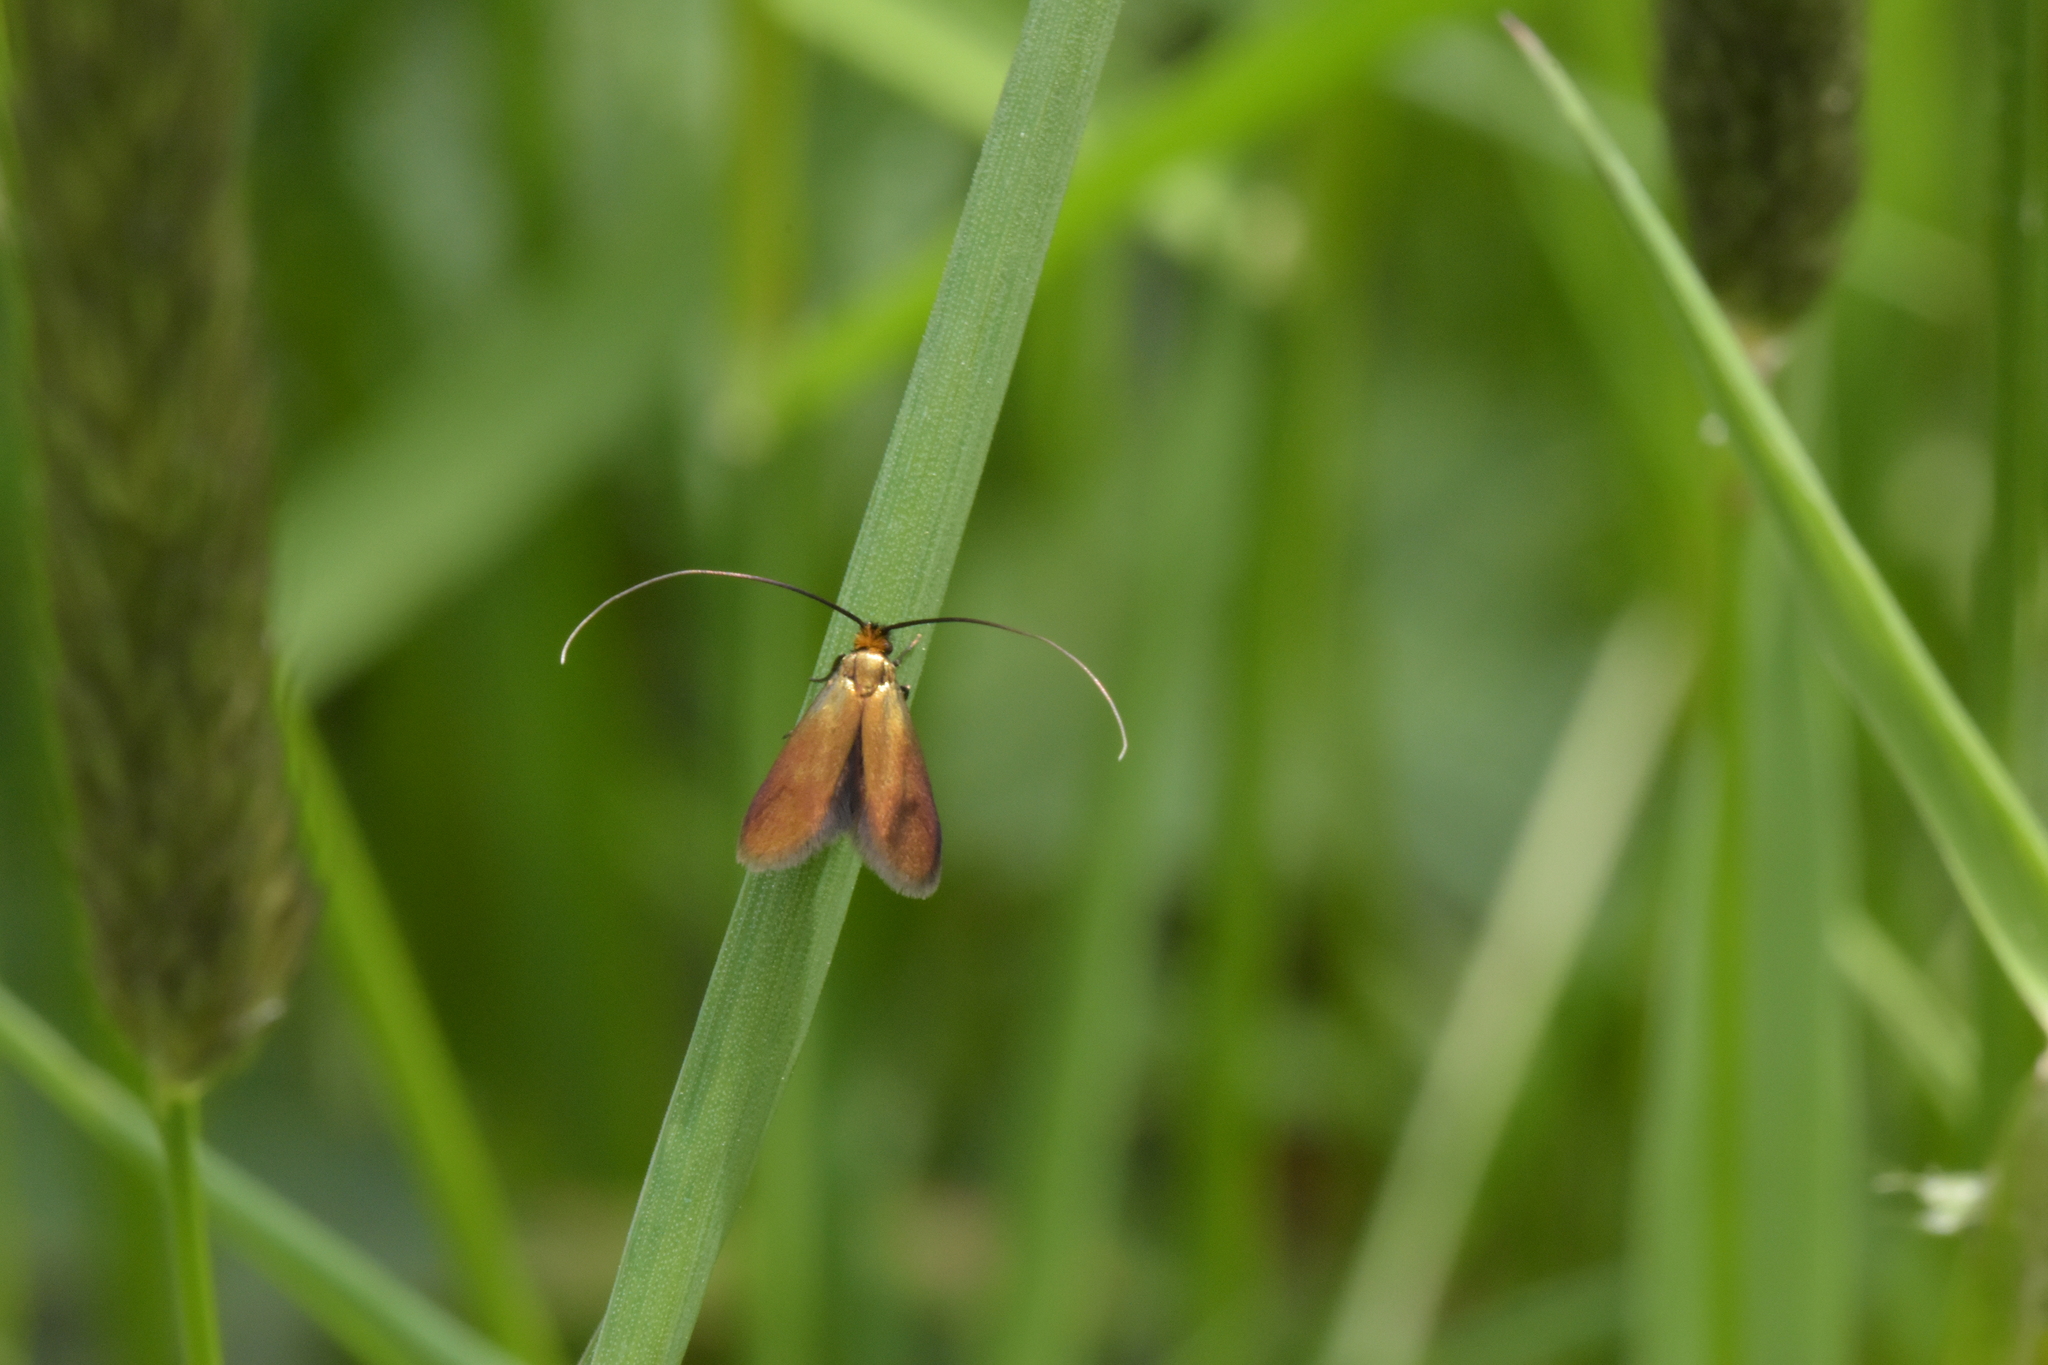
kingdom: Animalia
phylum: Arthropoda
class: Insecta
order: Lepidoptera
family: Adelidae
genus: Cauchas
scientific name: Cauchas rufimitrella
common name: Meadow long-horn
